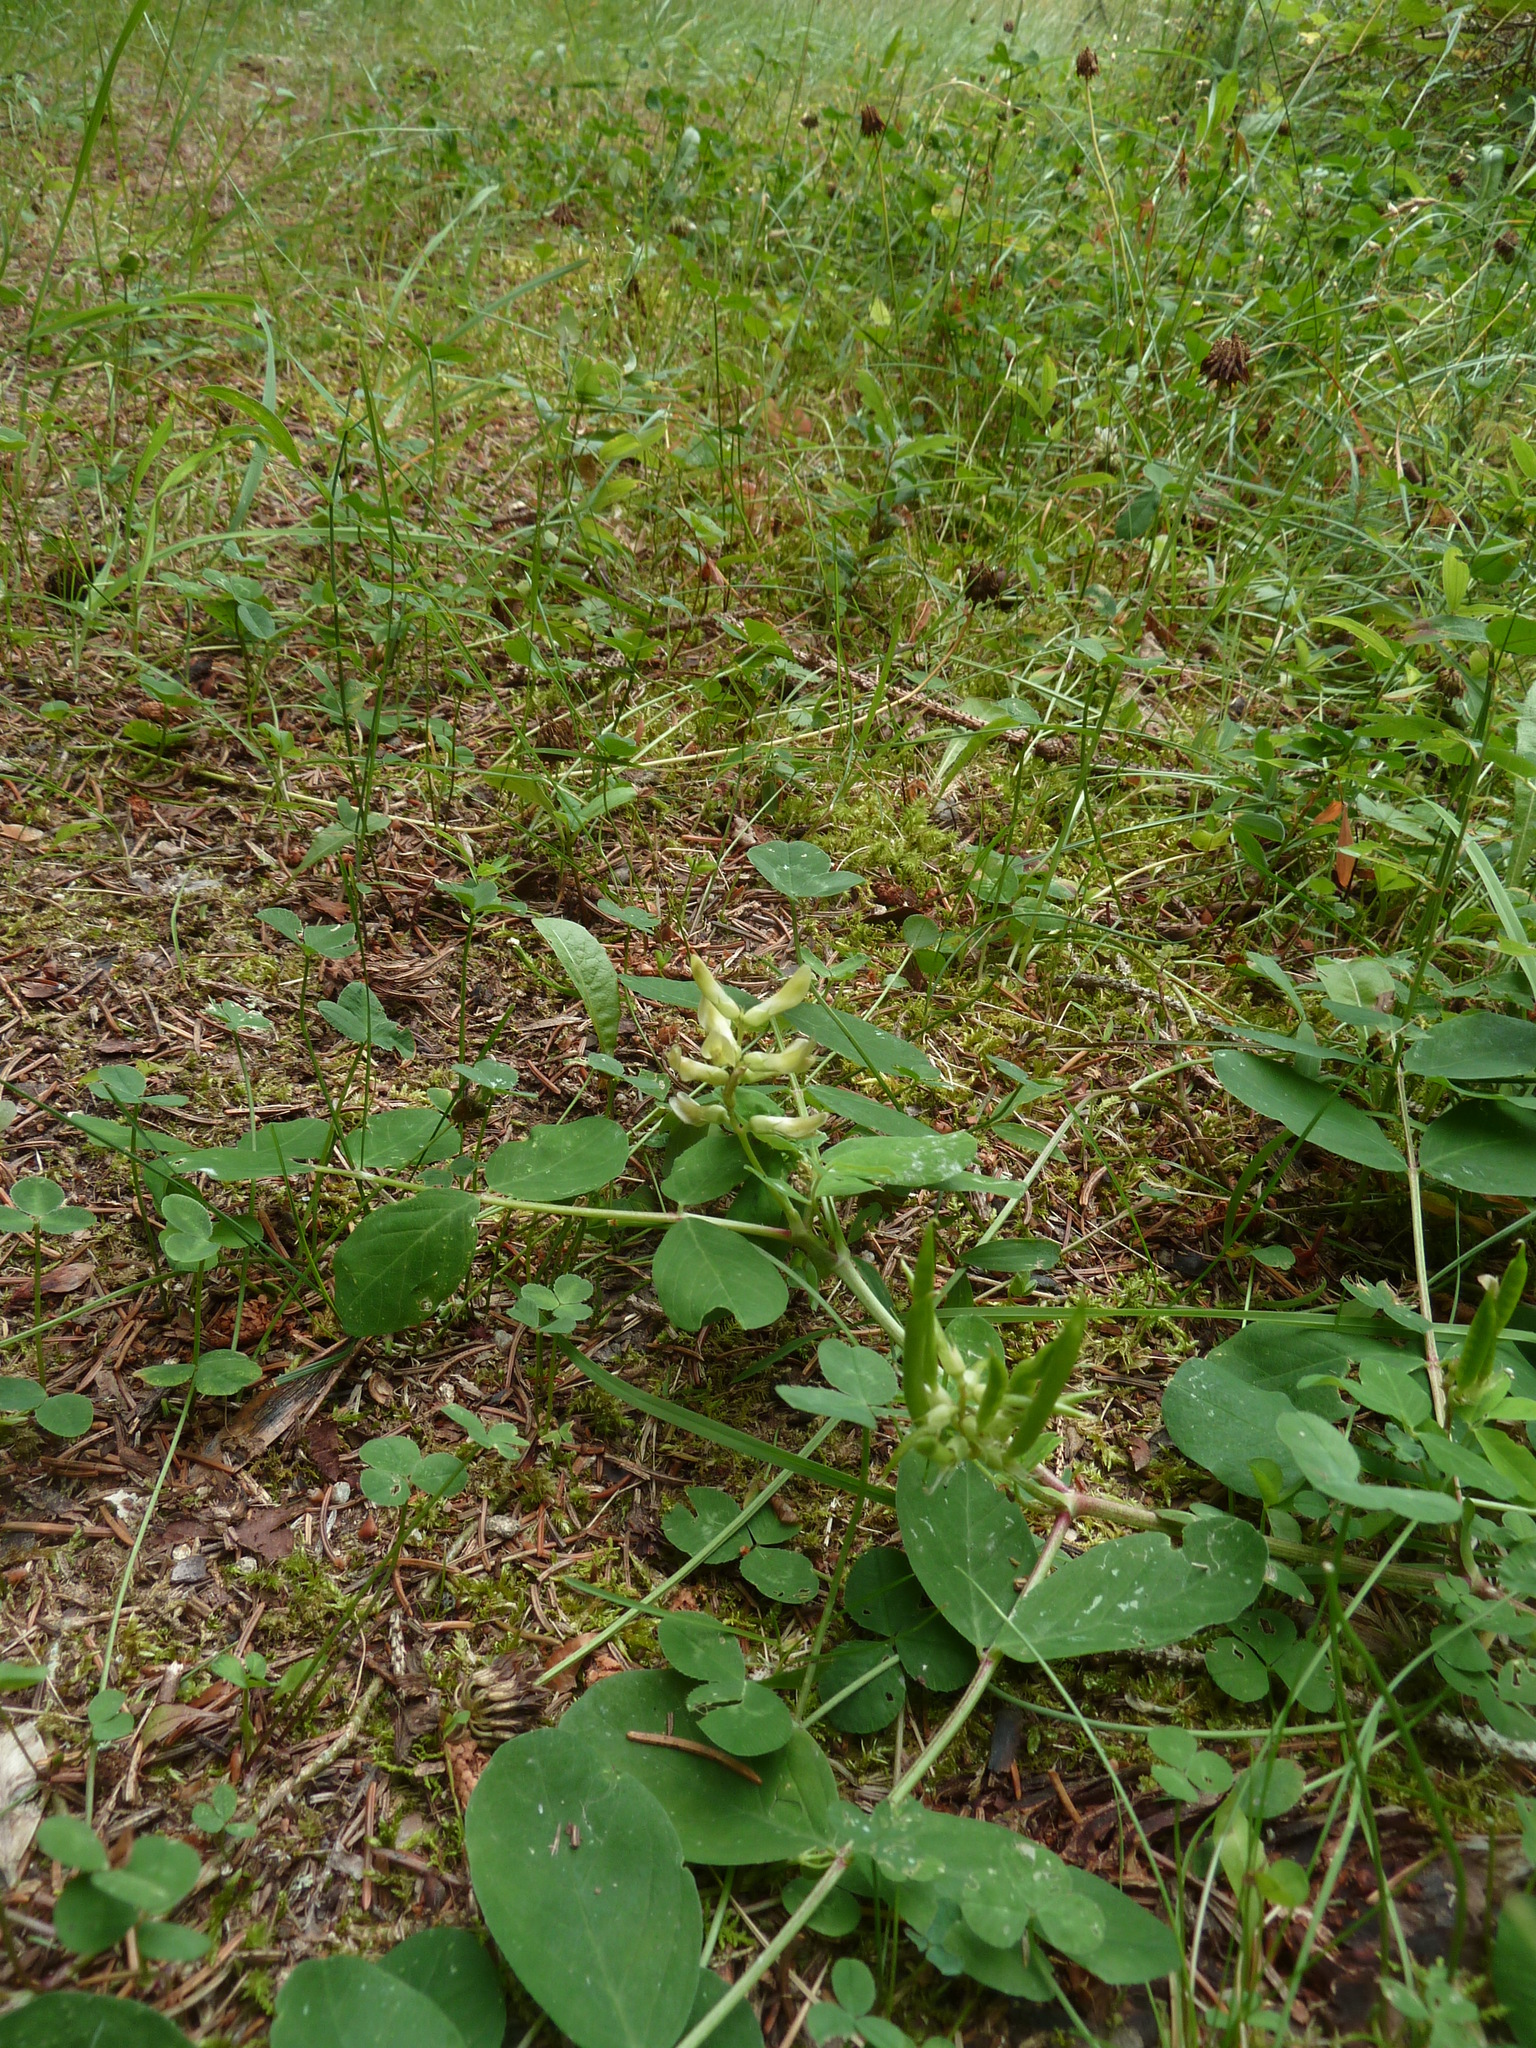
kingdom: Plantae
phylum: Tracheophyta
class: Magnoliopsida
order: Fabales
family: Fabaceae
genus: Astragalus
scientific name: Astragalus glycyphyllos
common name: Wild liquorice
